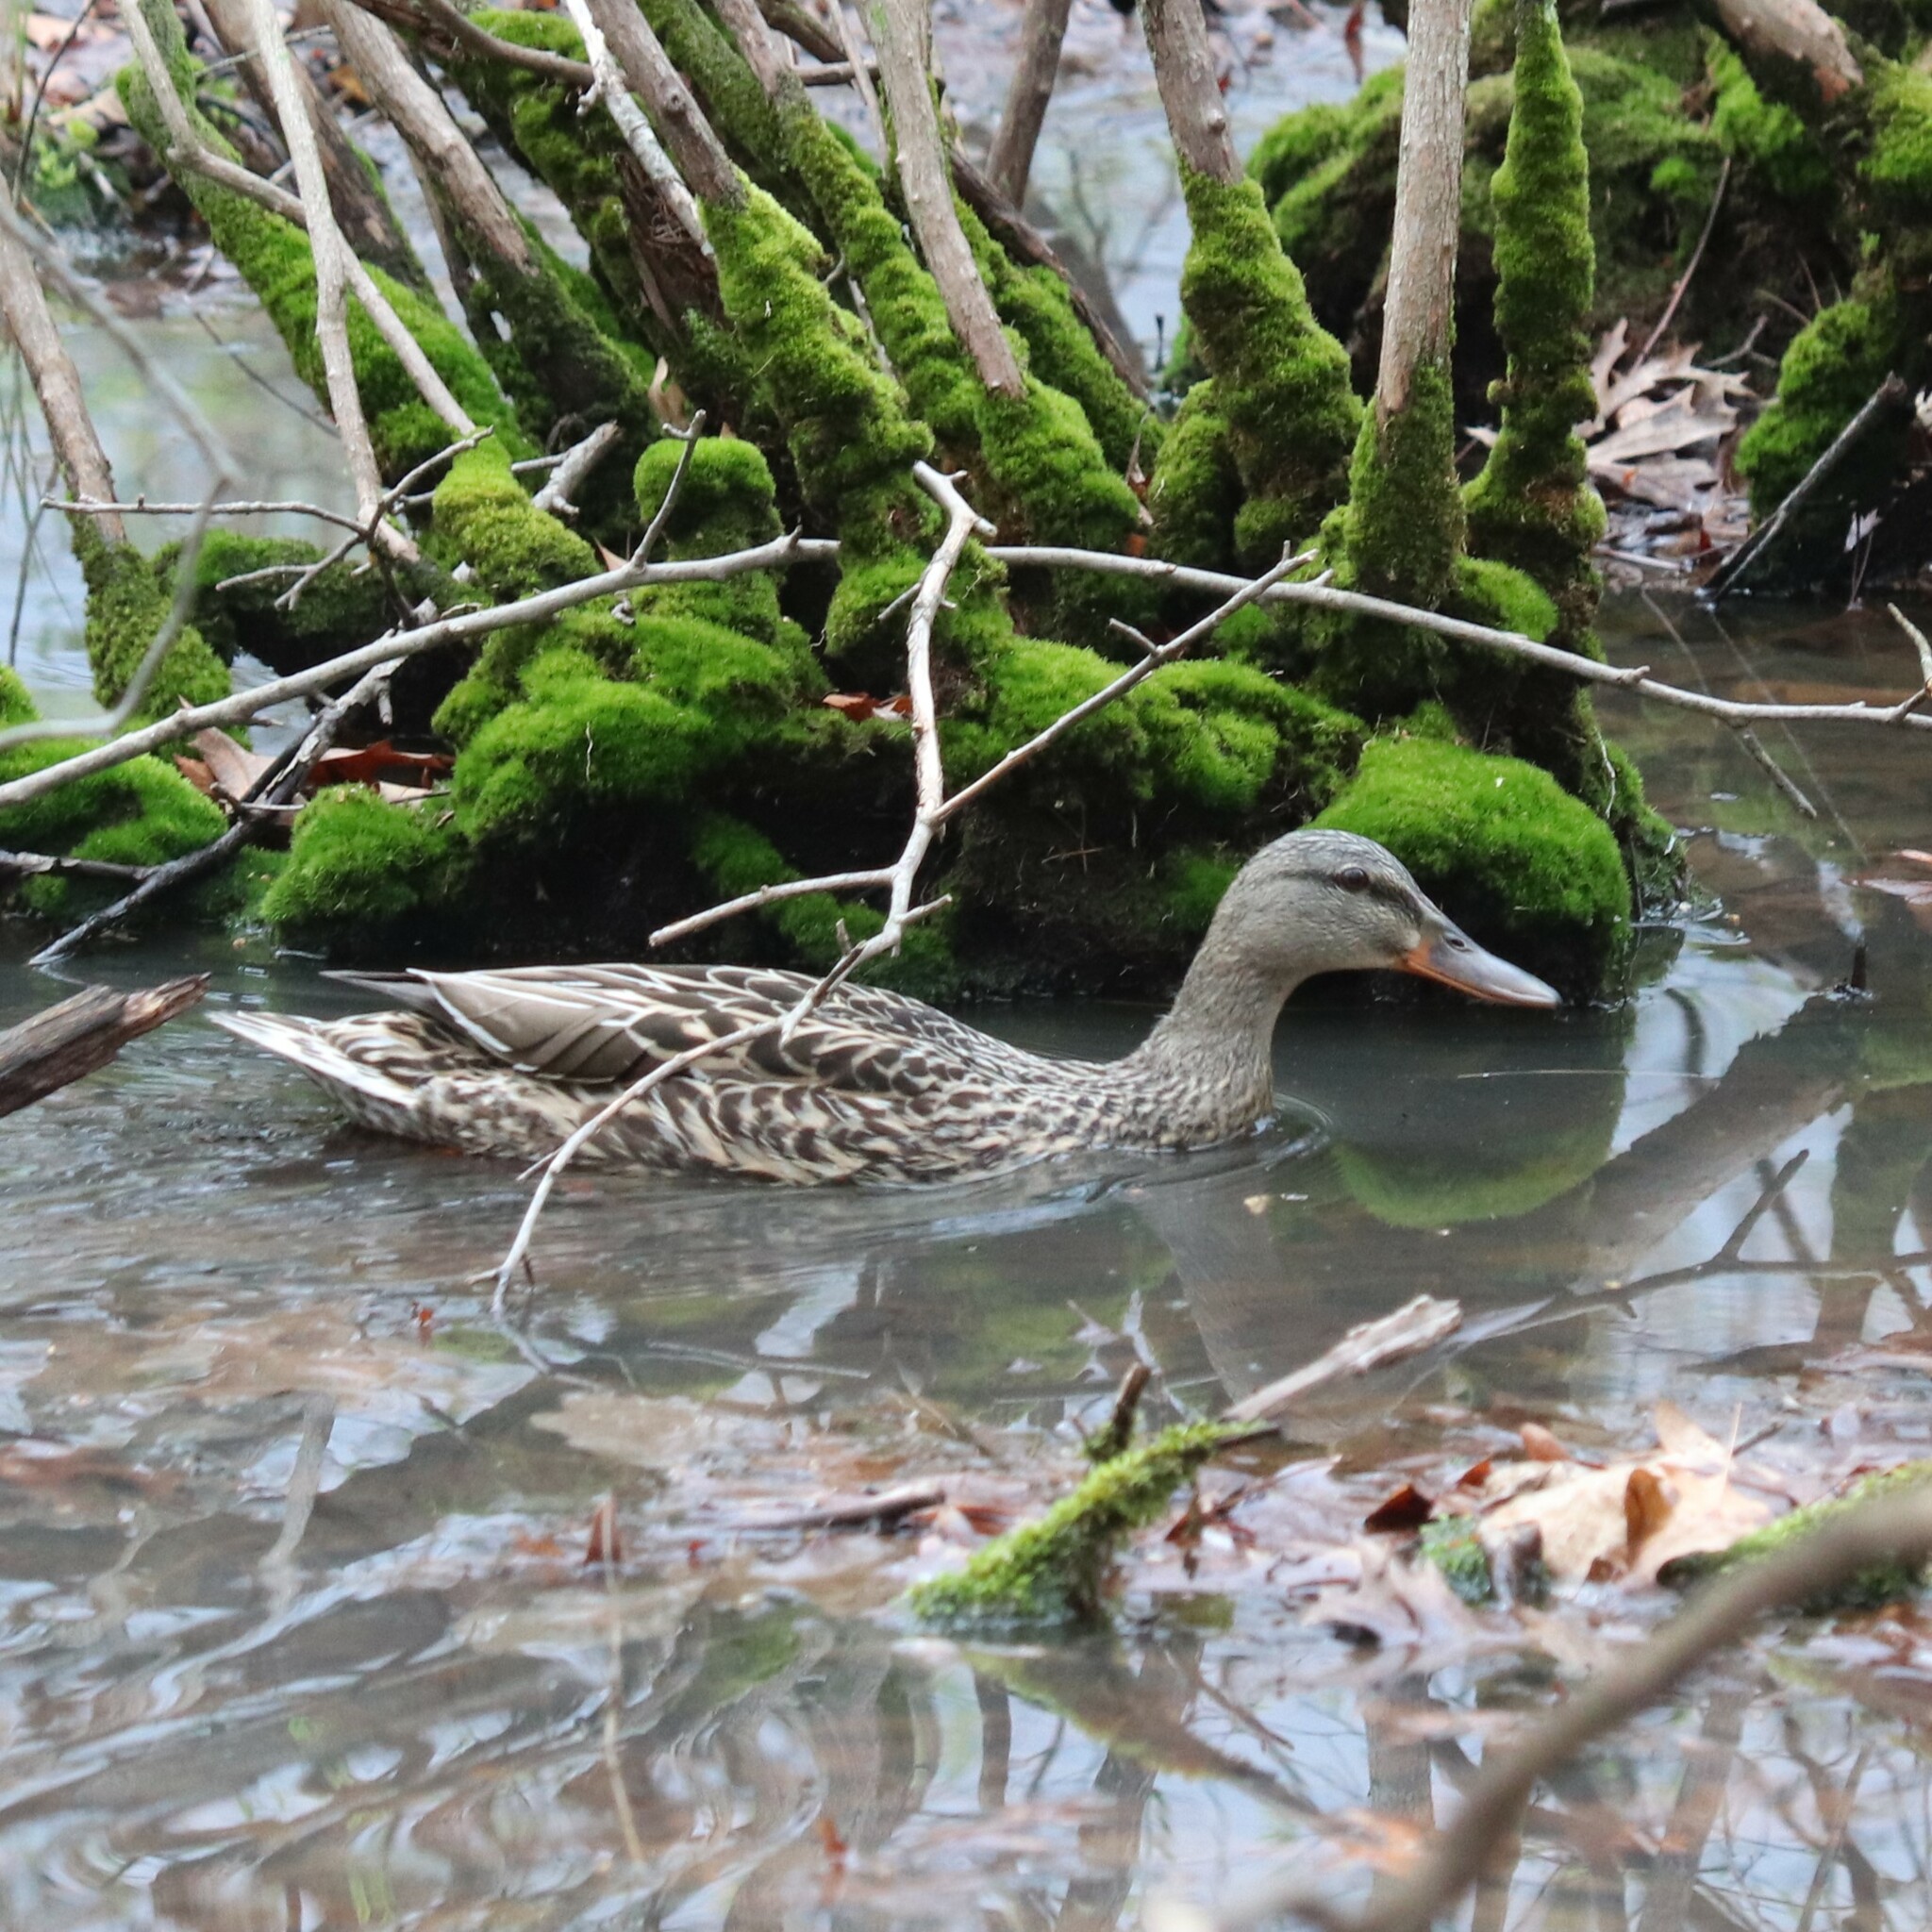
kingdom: Animalia
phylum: Chordata
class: Aves
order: Anseriformes
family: Anatidae
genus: Anas
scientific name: Anas platyrhynchos
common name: Mallard
